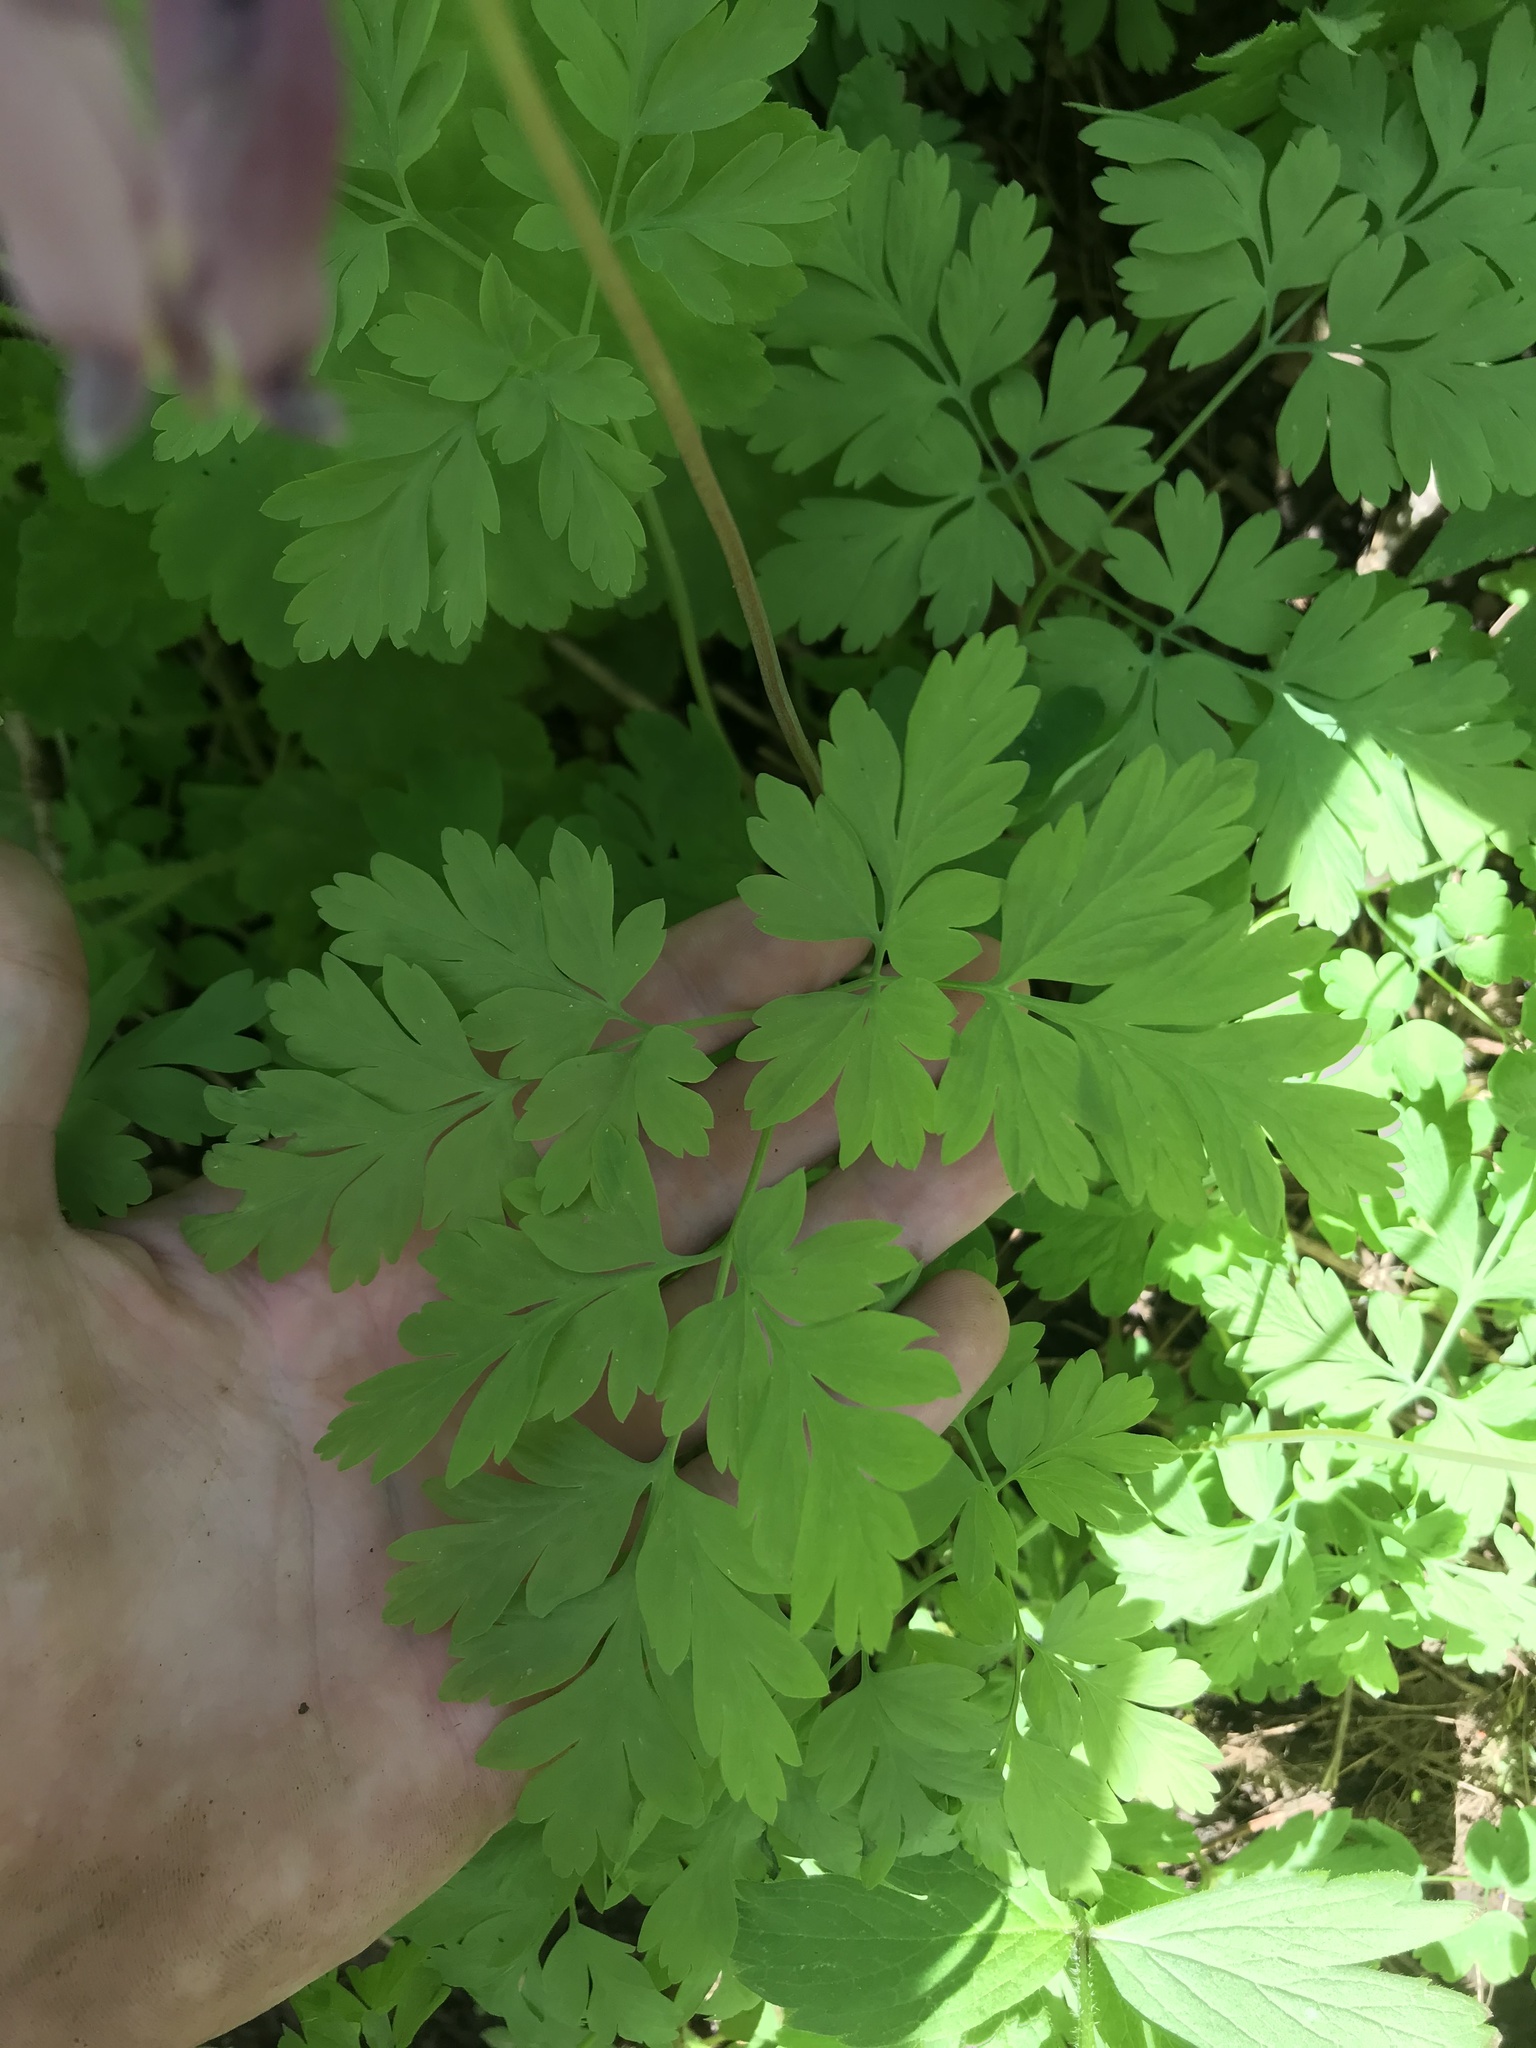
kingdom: Plantae
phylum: Tracheophyta
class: Magnoliopsida
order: Ranunculales
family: Papaveraceae
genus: Dicentra
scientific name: Dicentra formosa
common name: Bleeding-heart
